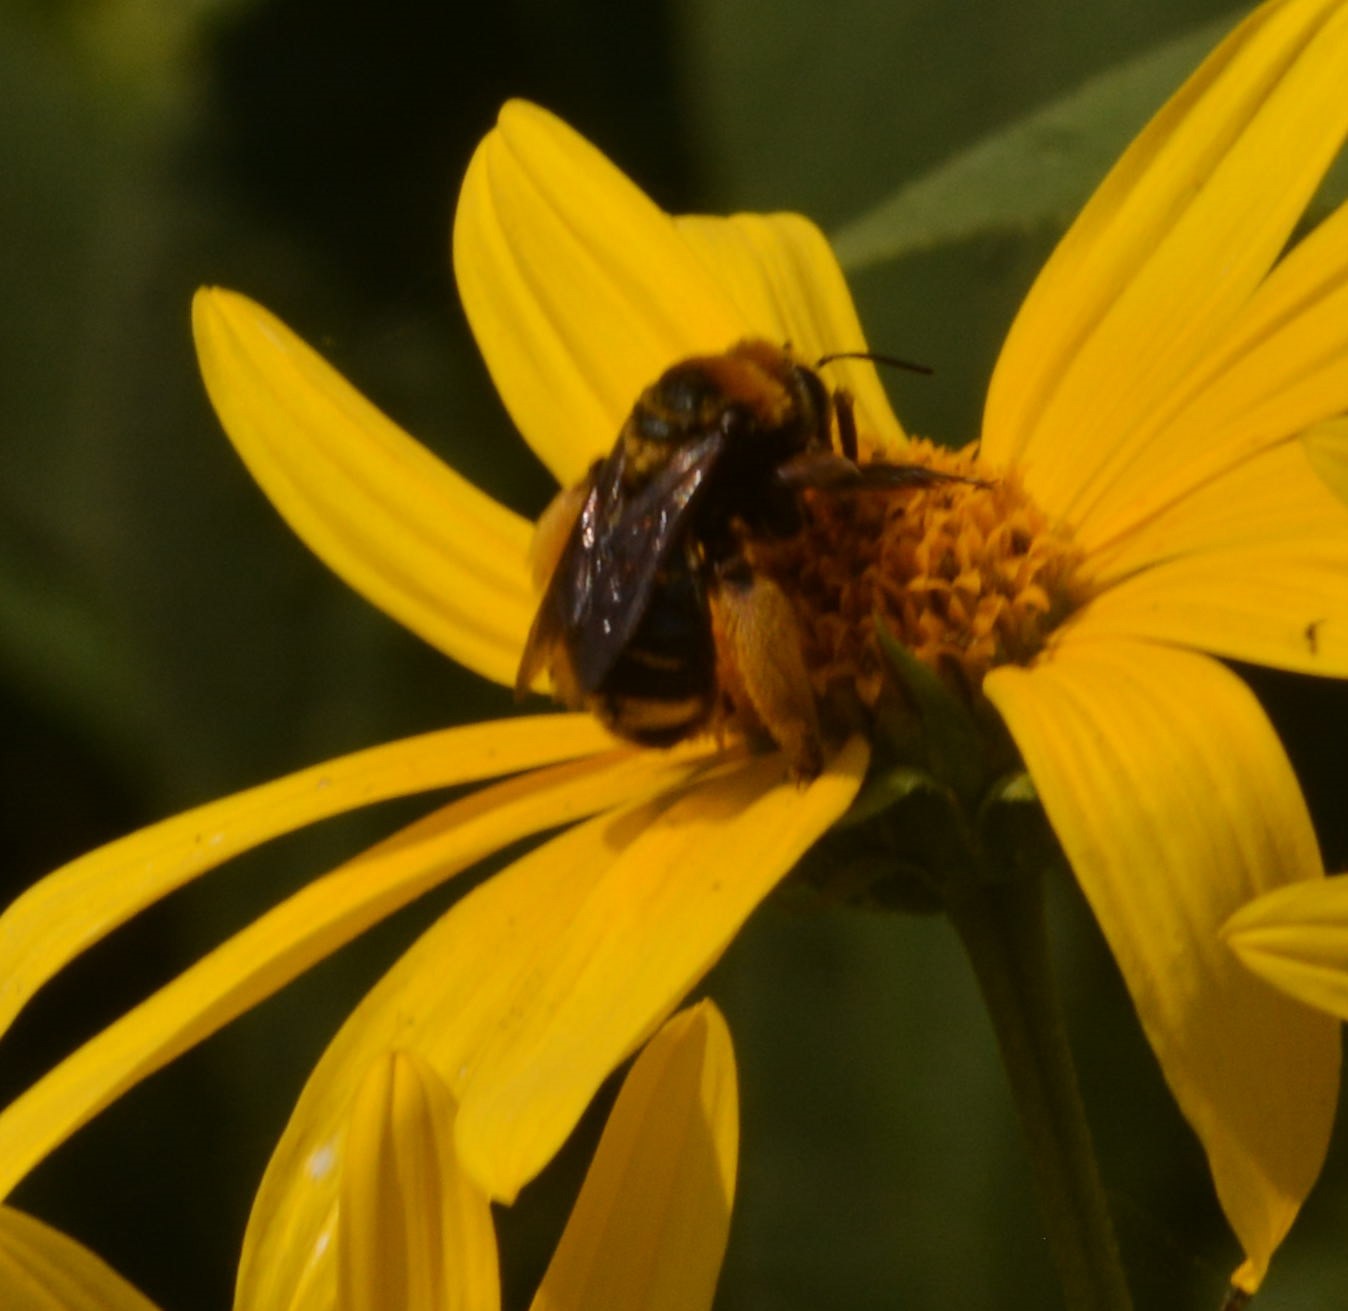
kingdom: Animalia
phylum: Arthropoda
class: Insecta
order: Hymenoptera
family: Apidae
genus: Svastra
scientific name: Svastra obliqua
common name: Oblique longhorn
